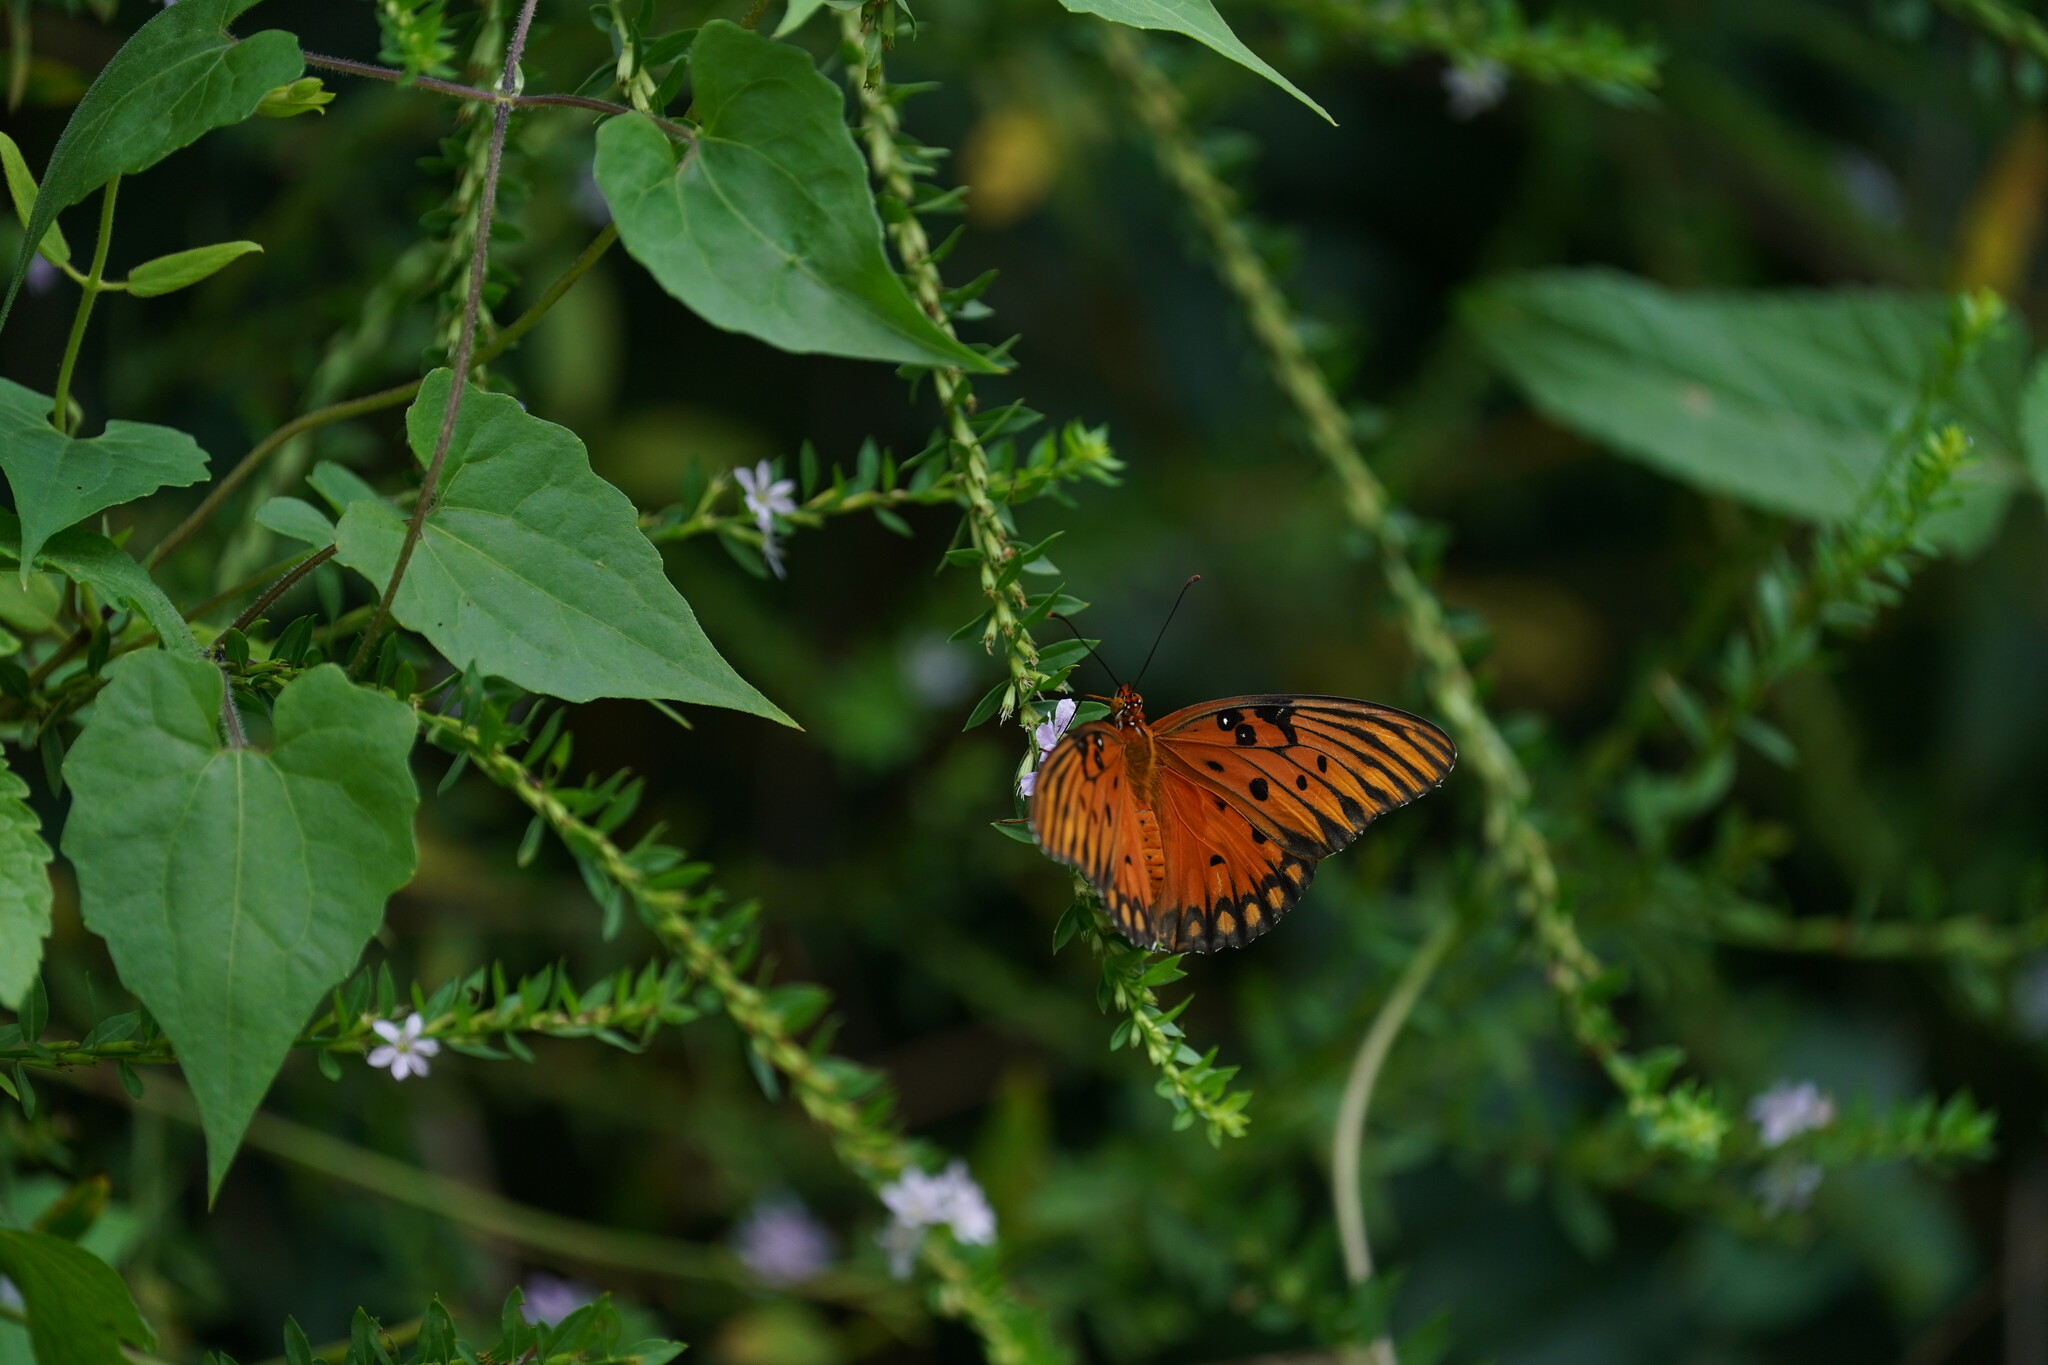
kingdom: Animalia
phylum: Arthropoda
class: Insecta
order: Lepidoptera
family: Nymphalidae
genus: Dione
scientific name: Dione vanillae
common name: Gulf fritillary
